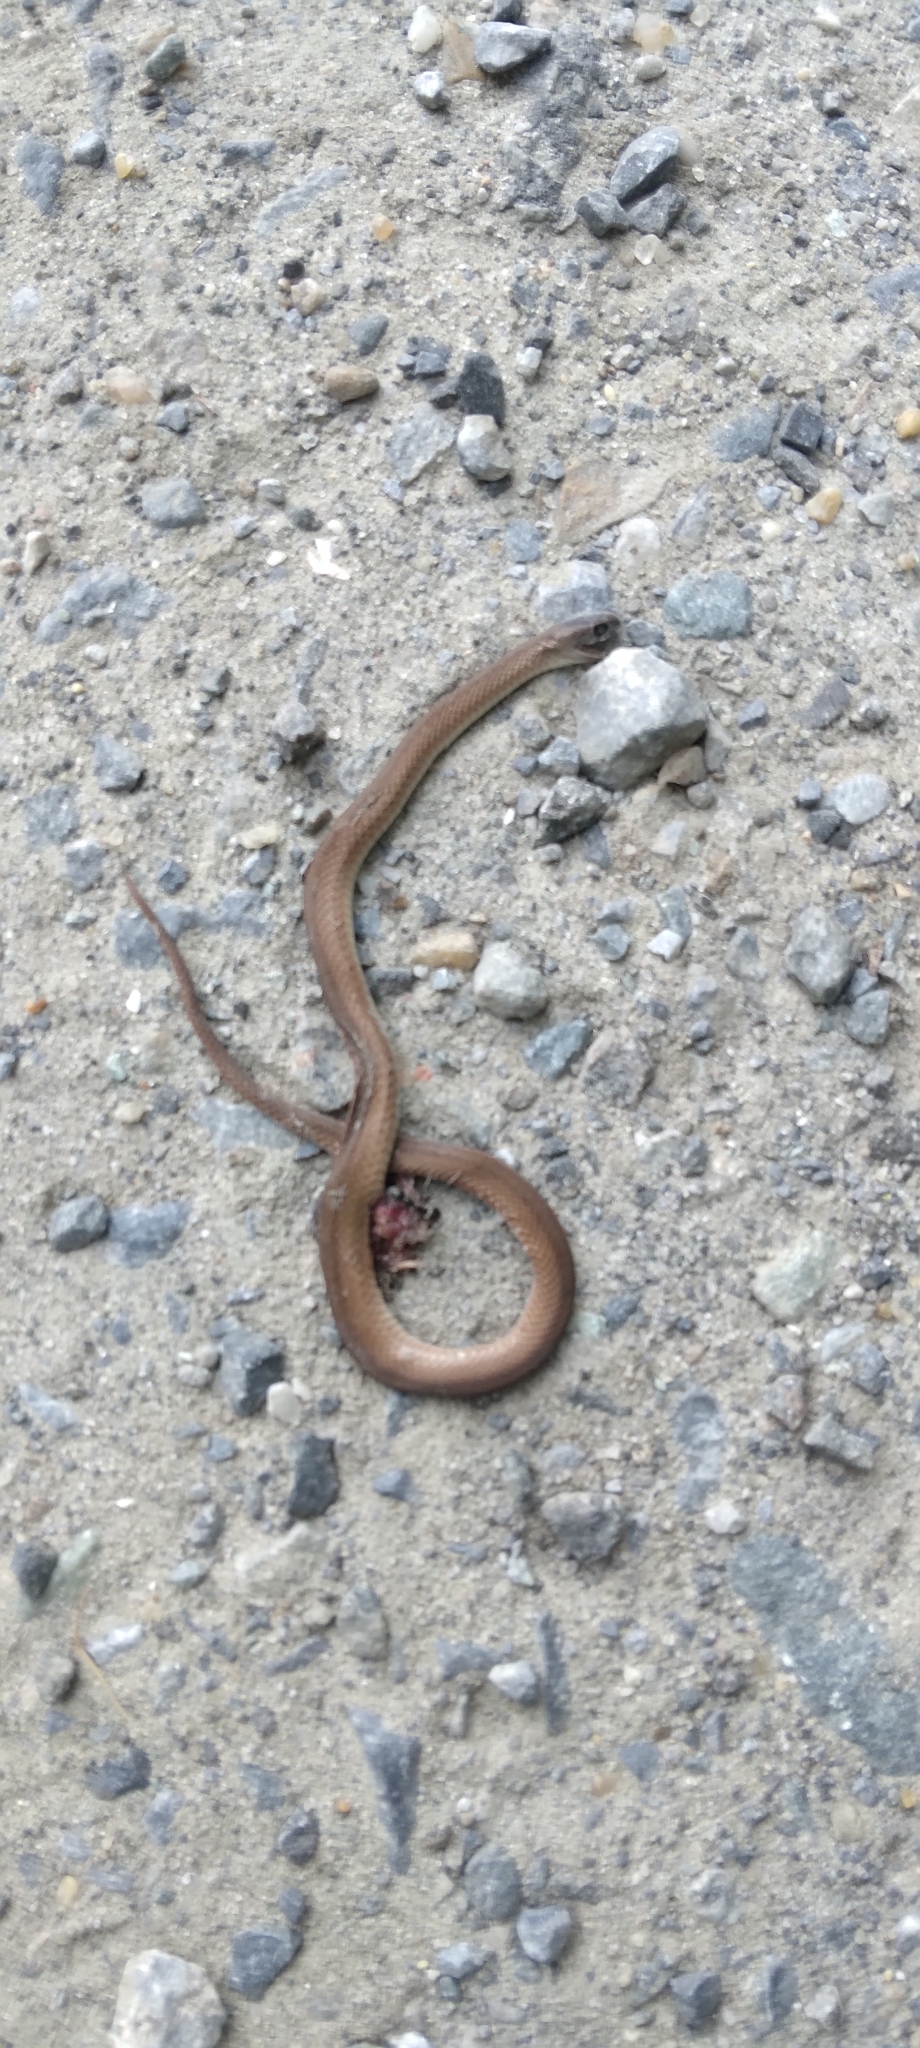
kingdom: Animalia
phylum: Chordata
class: Squamata
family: Colubridae
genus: Storeria
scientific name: Storeria dekayi
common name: (dekay’s) brown snake
